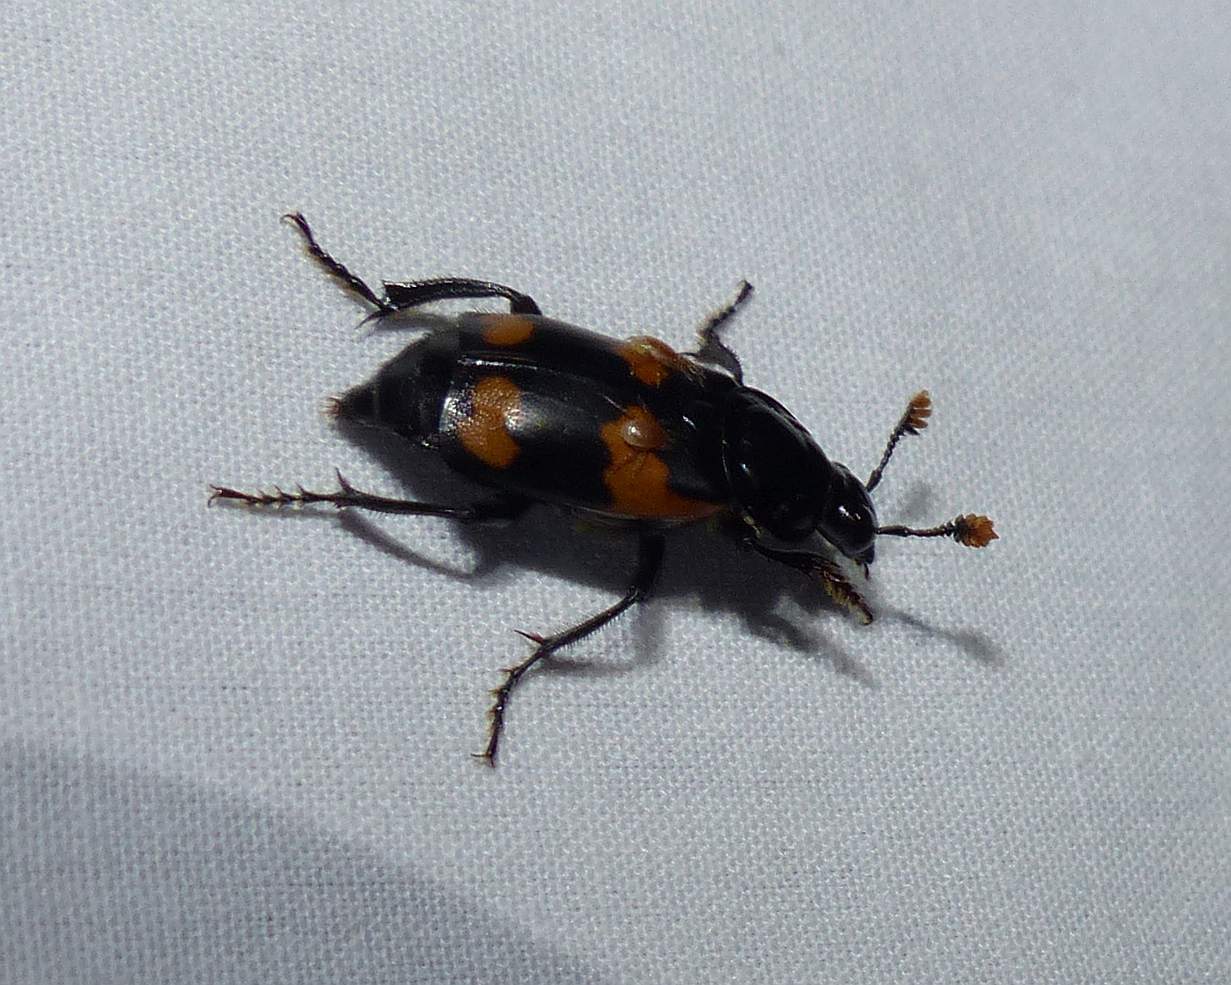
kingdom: Animalia
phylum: Arthropoda
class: Insecta
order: Coleoptera
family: Staphylinidae
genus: Nicrophorus
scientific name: Nicrophorus sayi
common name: Say's burying beetle
